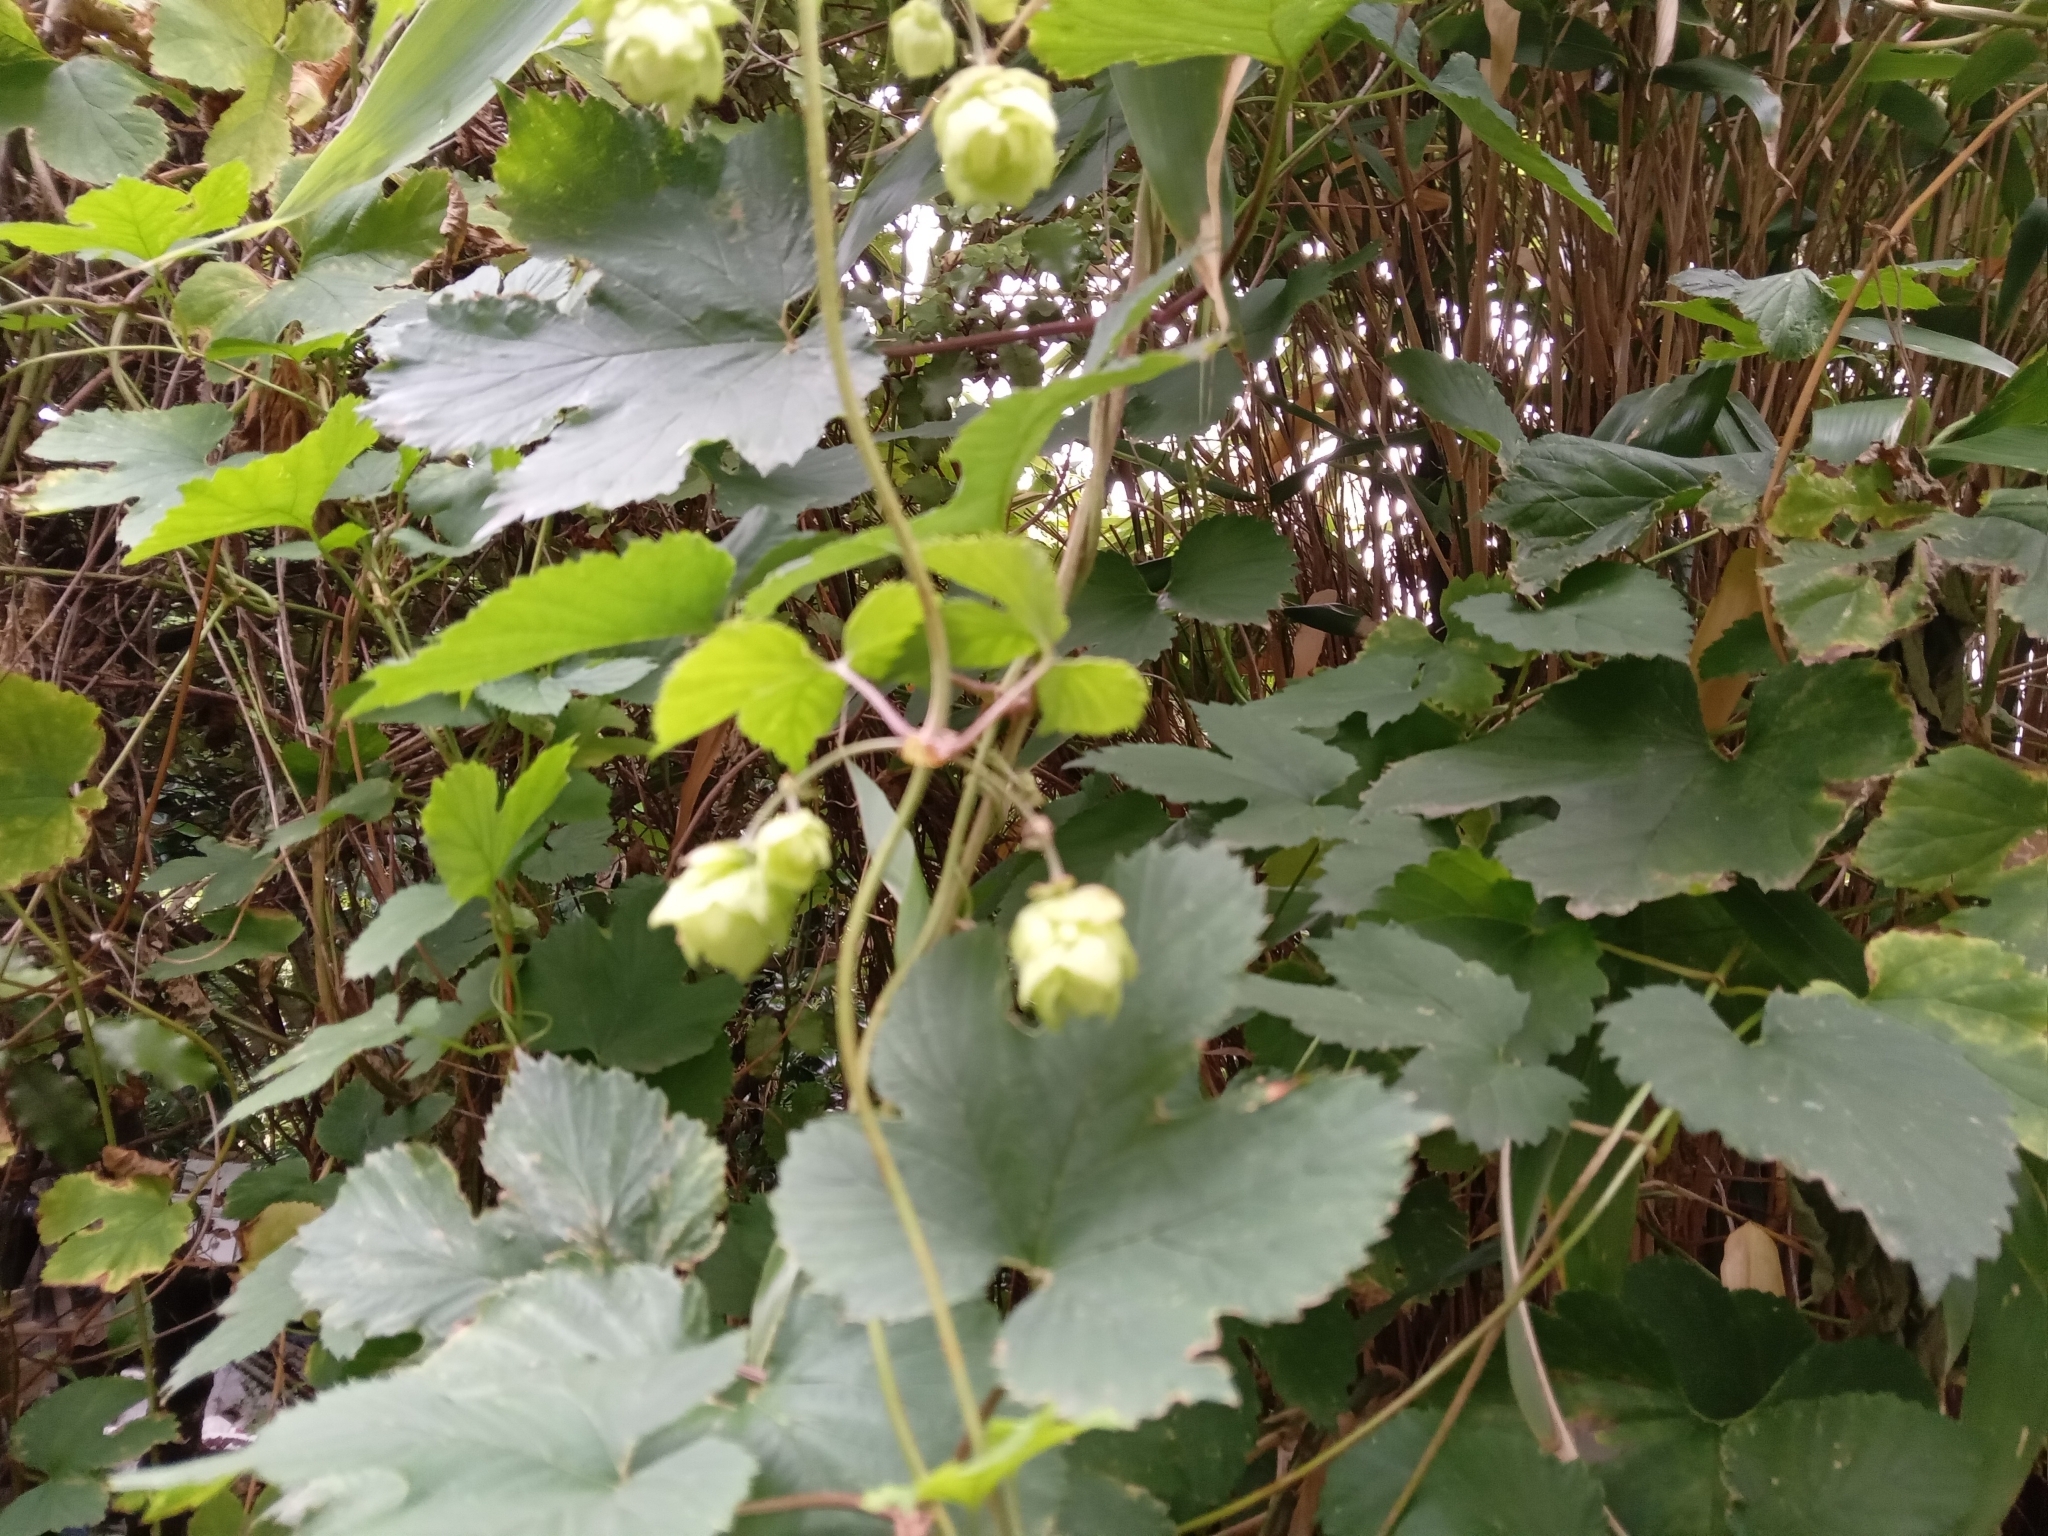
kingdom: Plantae
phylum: Tracheophyta
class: Magnoliopsida
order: Rosales
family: Cannabaceae
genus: Humulus
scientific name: Humulus lupulus
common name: Hop
